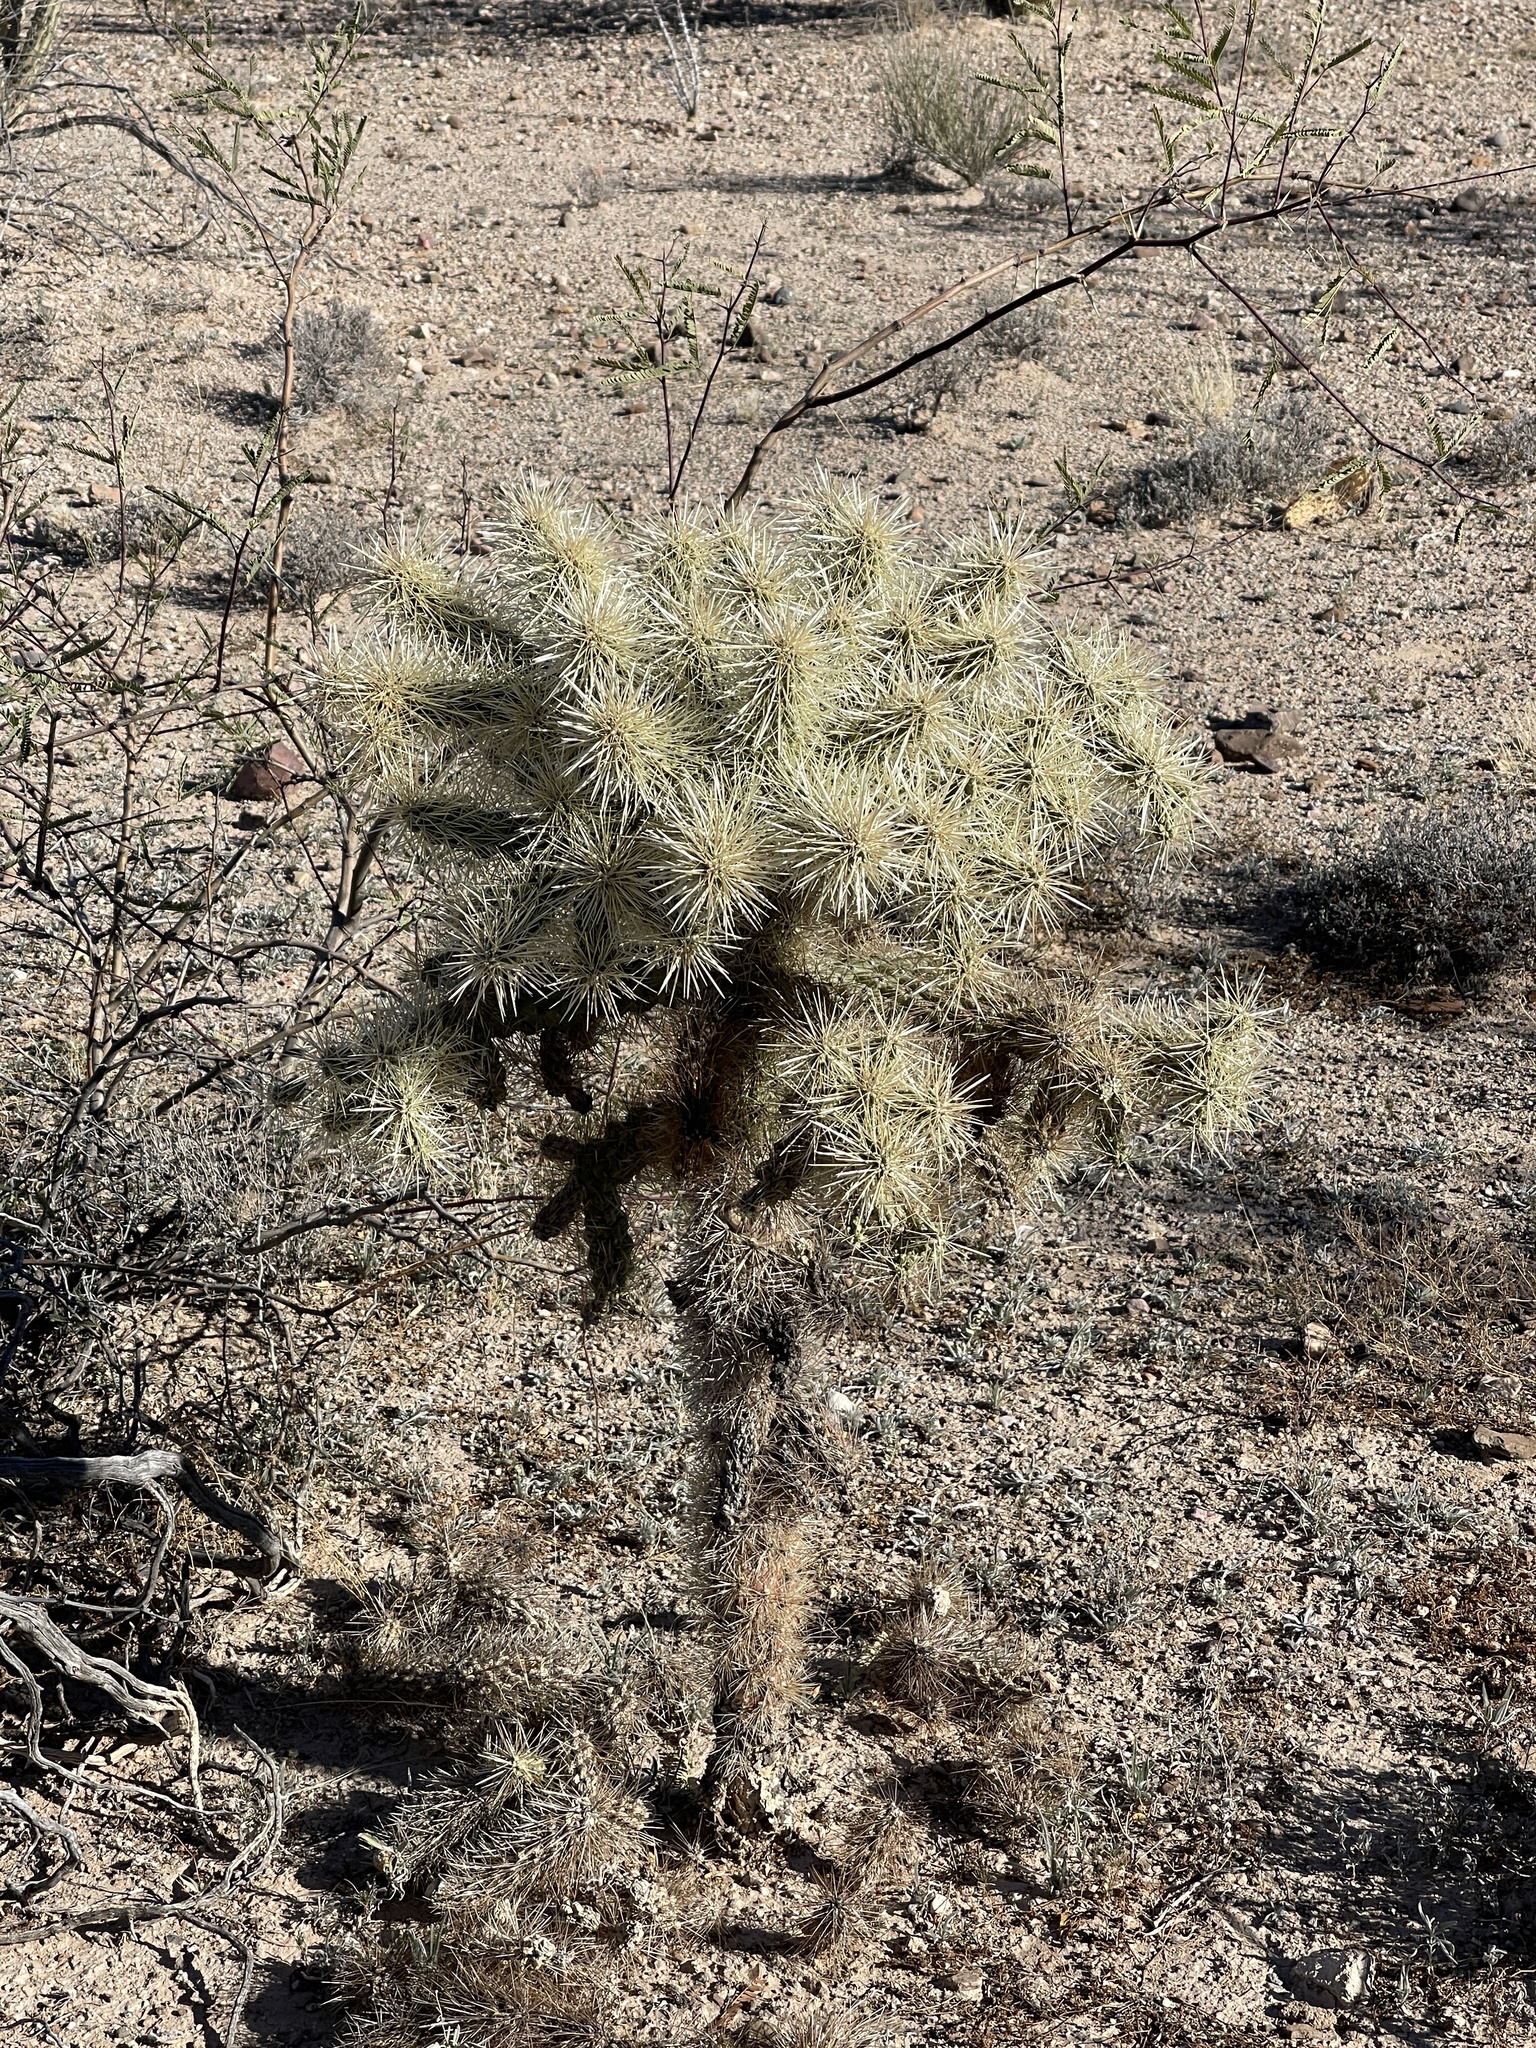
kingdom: Plantae
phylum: Tracheophyta
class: Magnoliopsida
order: Caryophyllales
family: Cactaceae
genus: Cylindropuntia
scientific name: Cylindropuntia fulgida
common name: Jumping cholla
